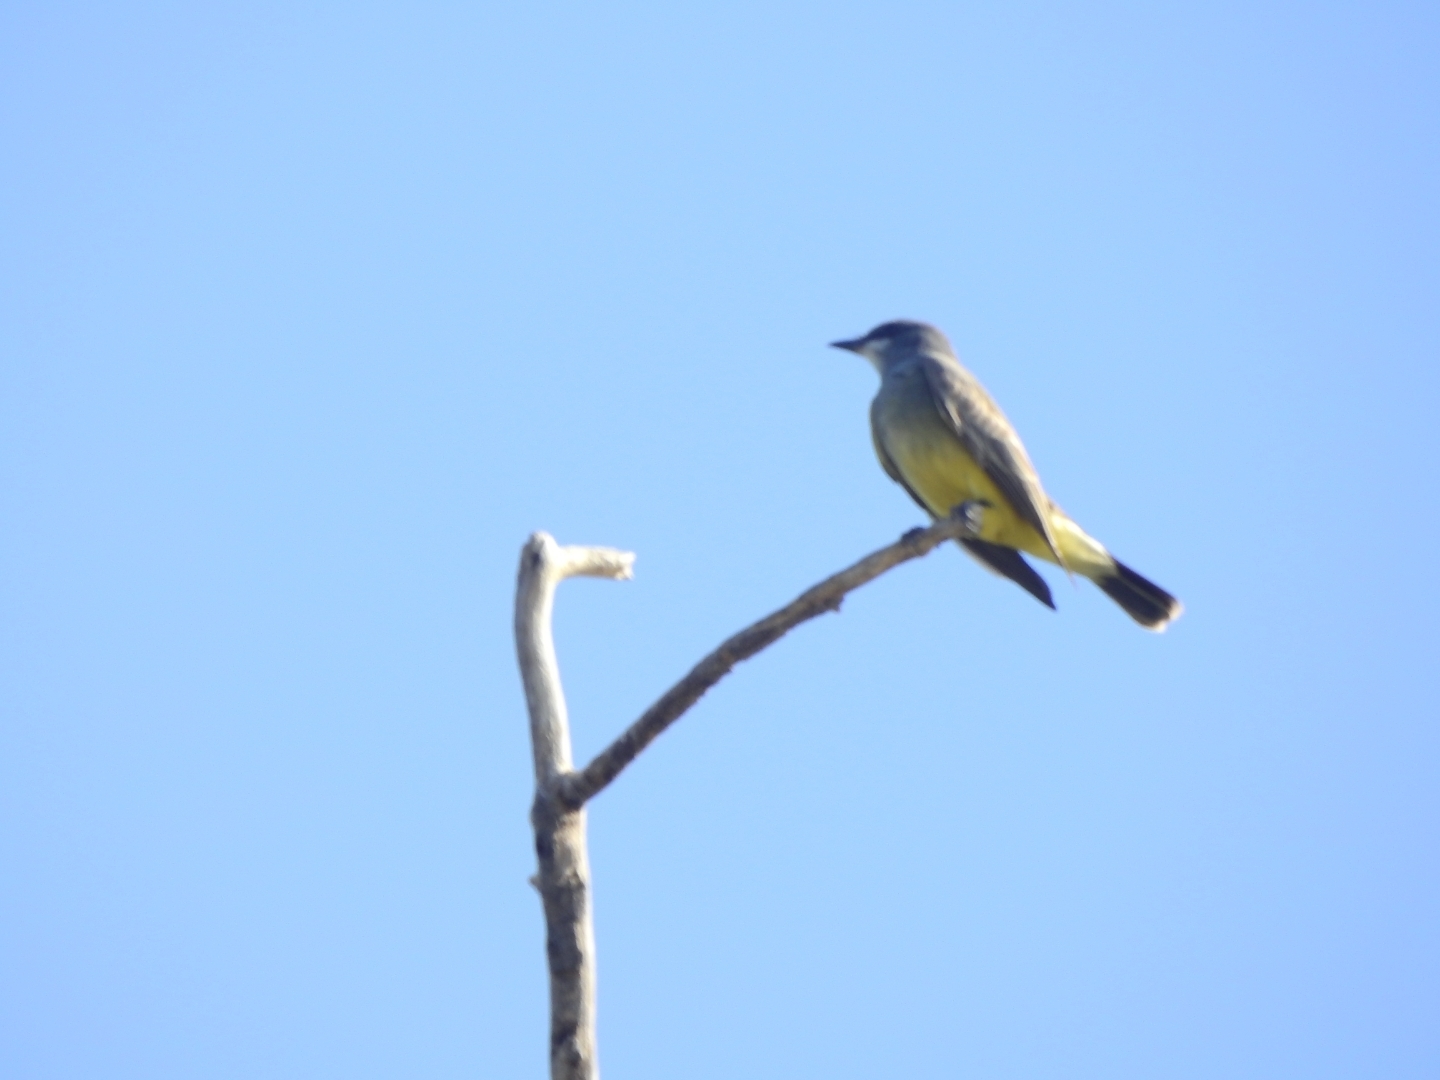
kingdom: Animalia
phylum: Chordata
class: Aves
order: Passeriformes
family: Tyrannidae
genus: Tyrannus
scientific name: Tyrannus vociferans
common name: Cassin's kingbird
